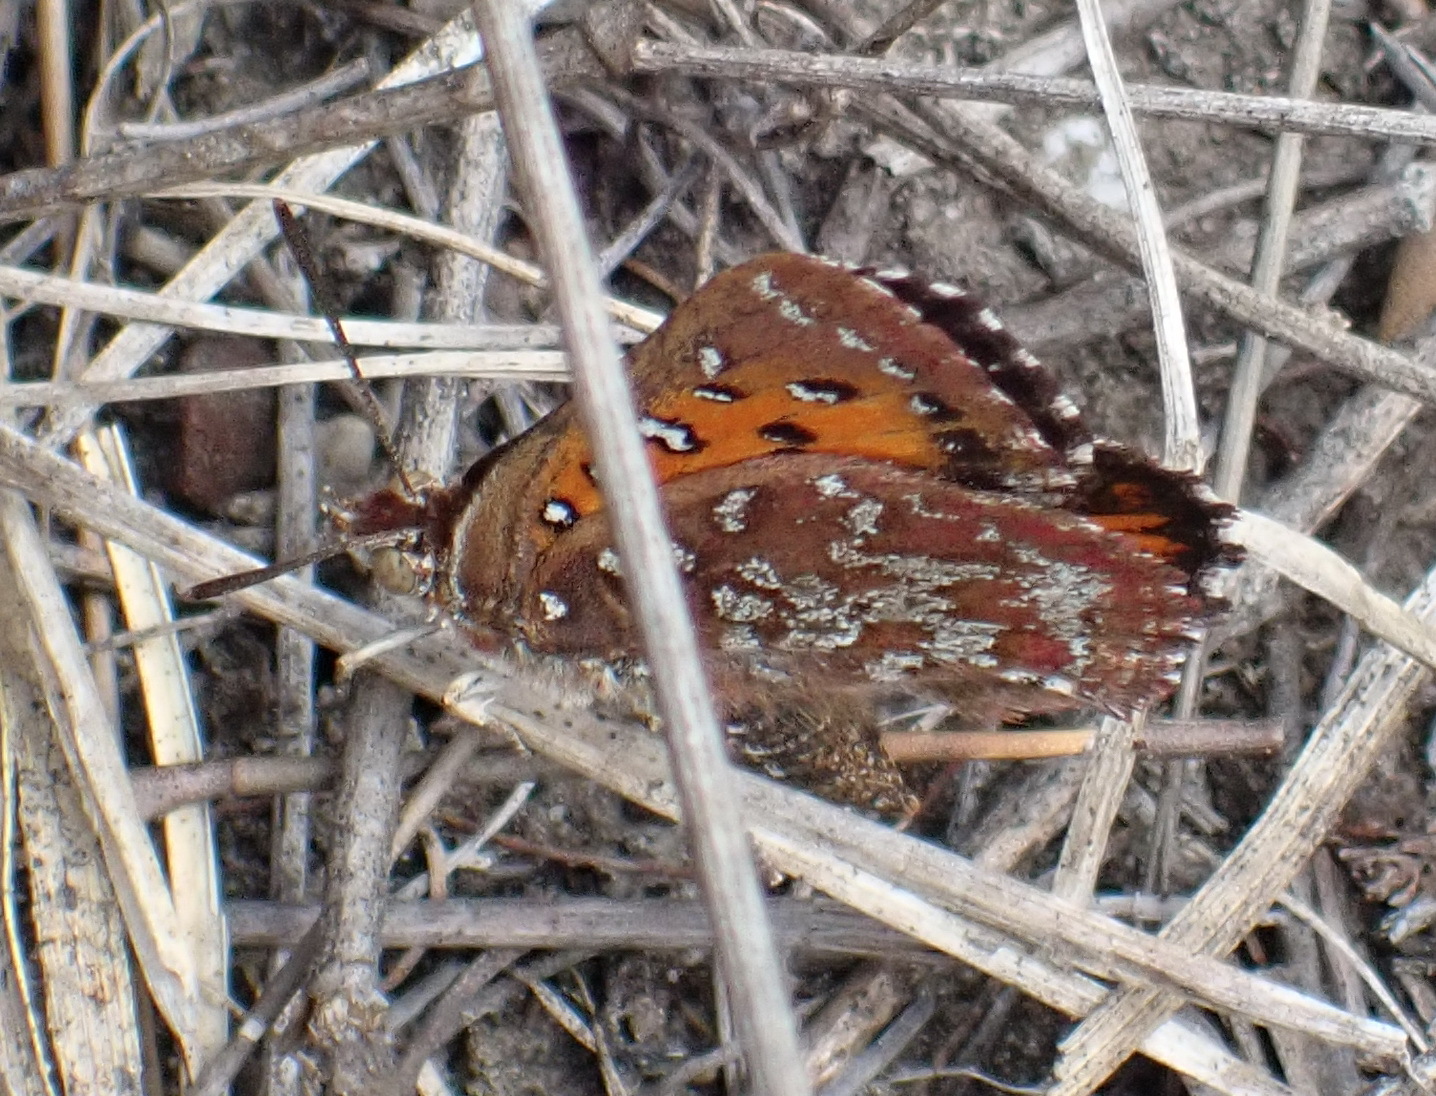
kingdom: Animalia
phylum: Arthropoda
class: Insecta
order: Lepidoptera
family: Lycaenidae
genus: Aloeides
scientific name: Aloeides pallida
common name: Giant copper
